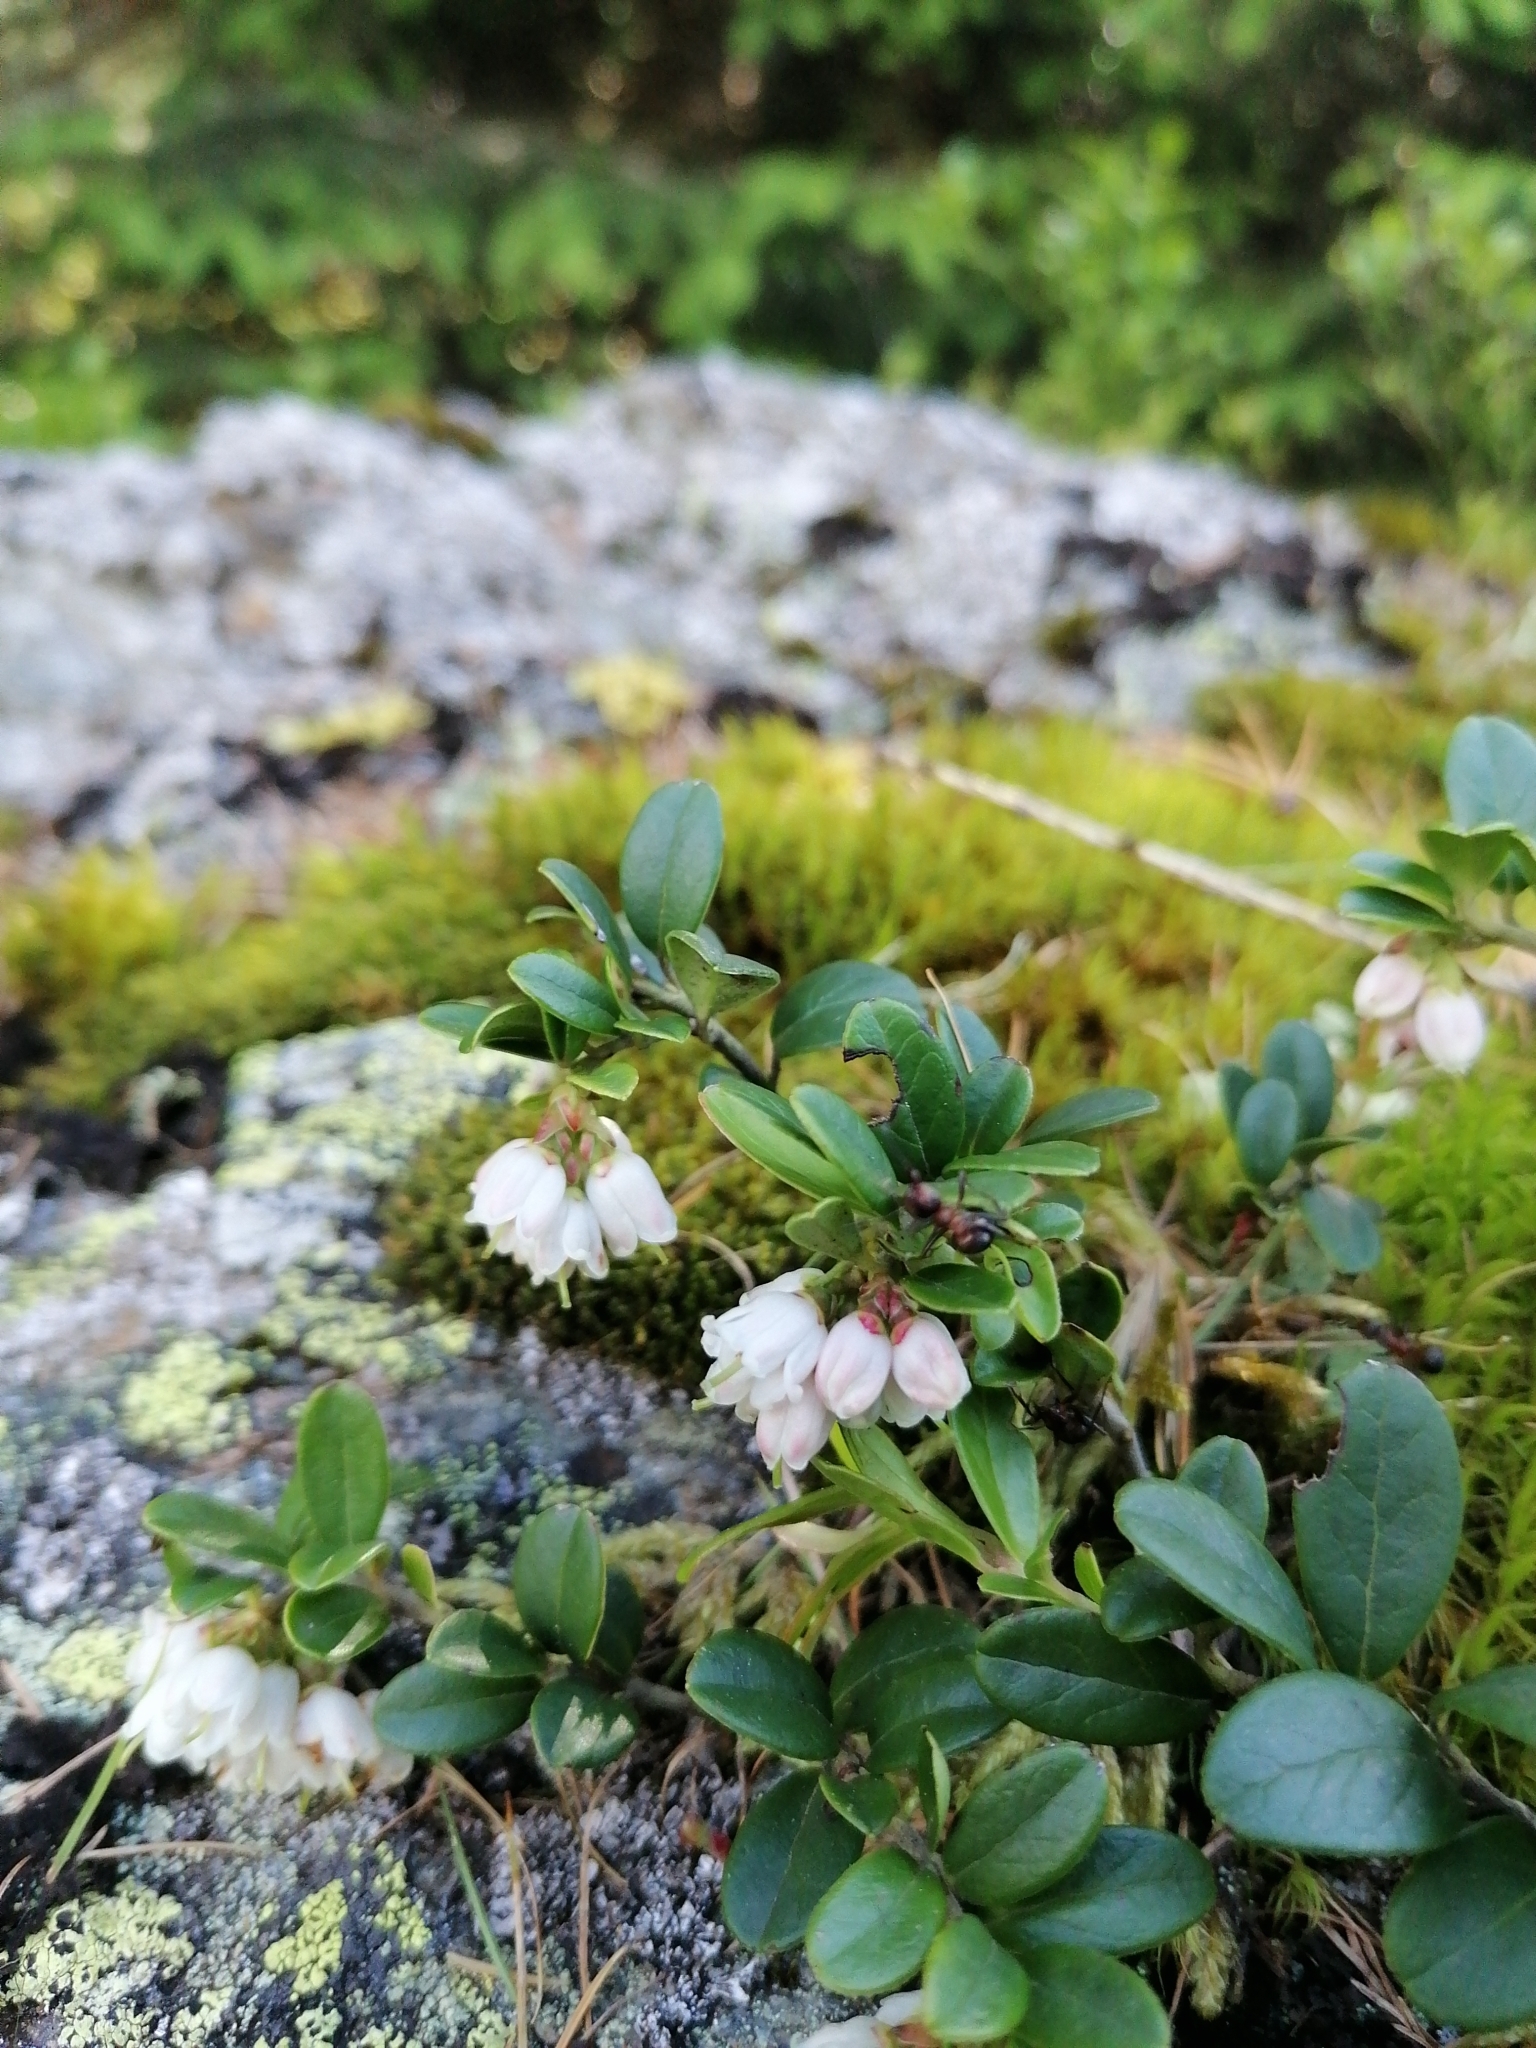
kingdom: Plantae
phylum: Tracheophyta
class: Magnoliopsida
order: Ericales
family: Ericaceae
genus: Vaccinium
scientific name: Vaccinium vitis-idaea
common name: Cowberry
